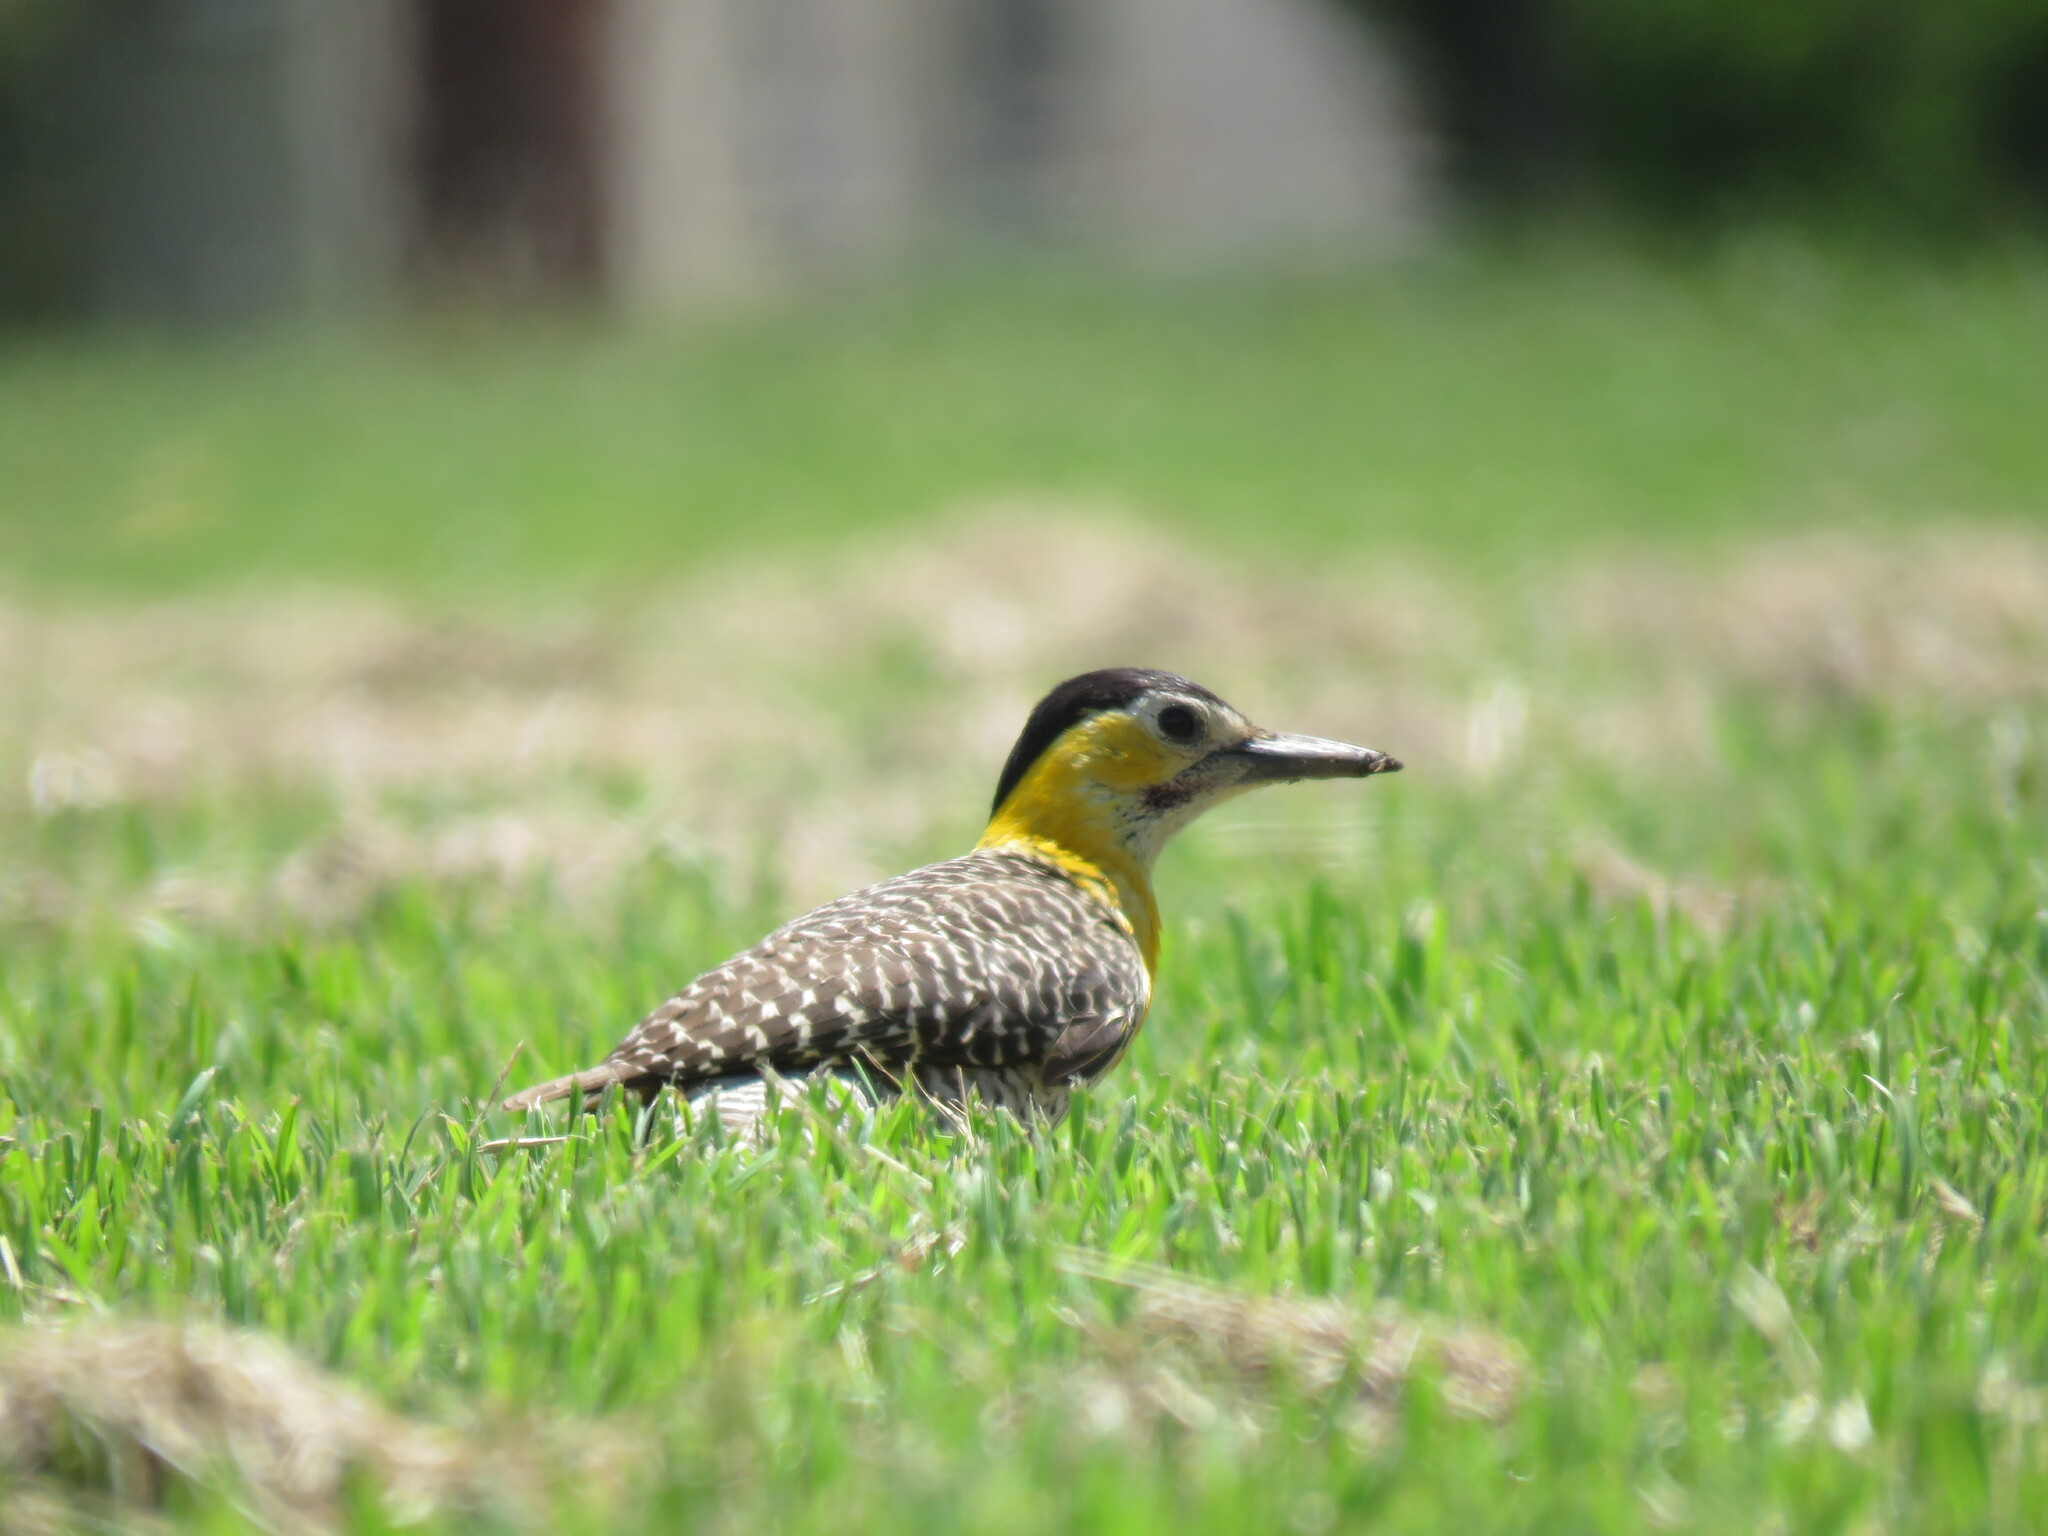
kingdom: Animalia
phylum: Chordata
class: Aves
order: Piciformes
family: Picidae
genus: Colaptes
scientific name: Colaptes campestris
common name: Campo flicker
